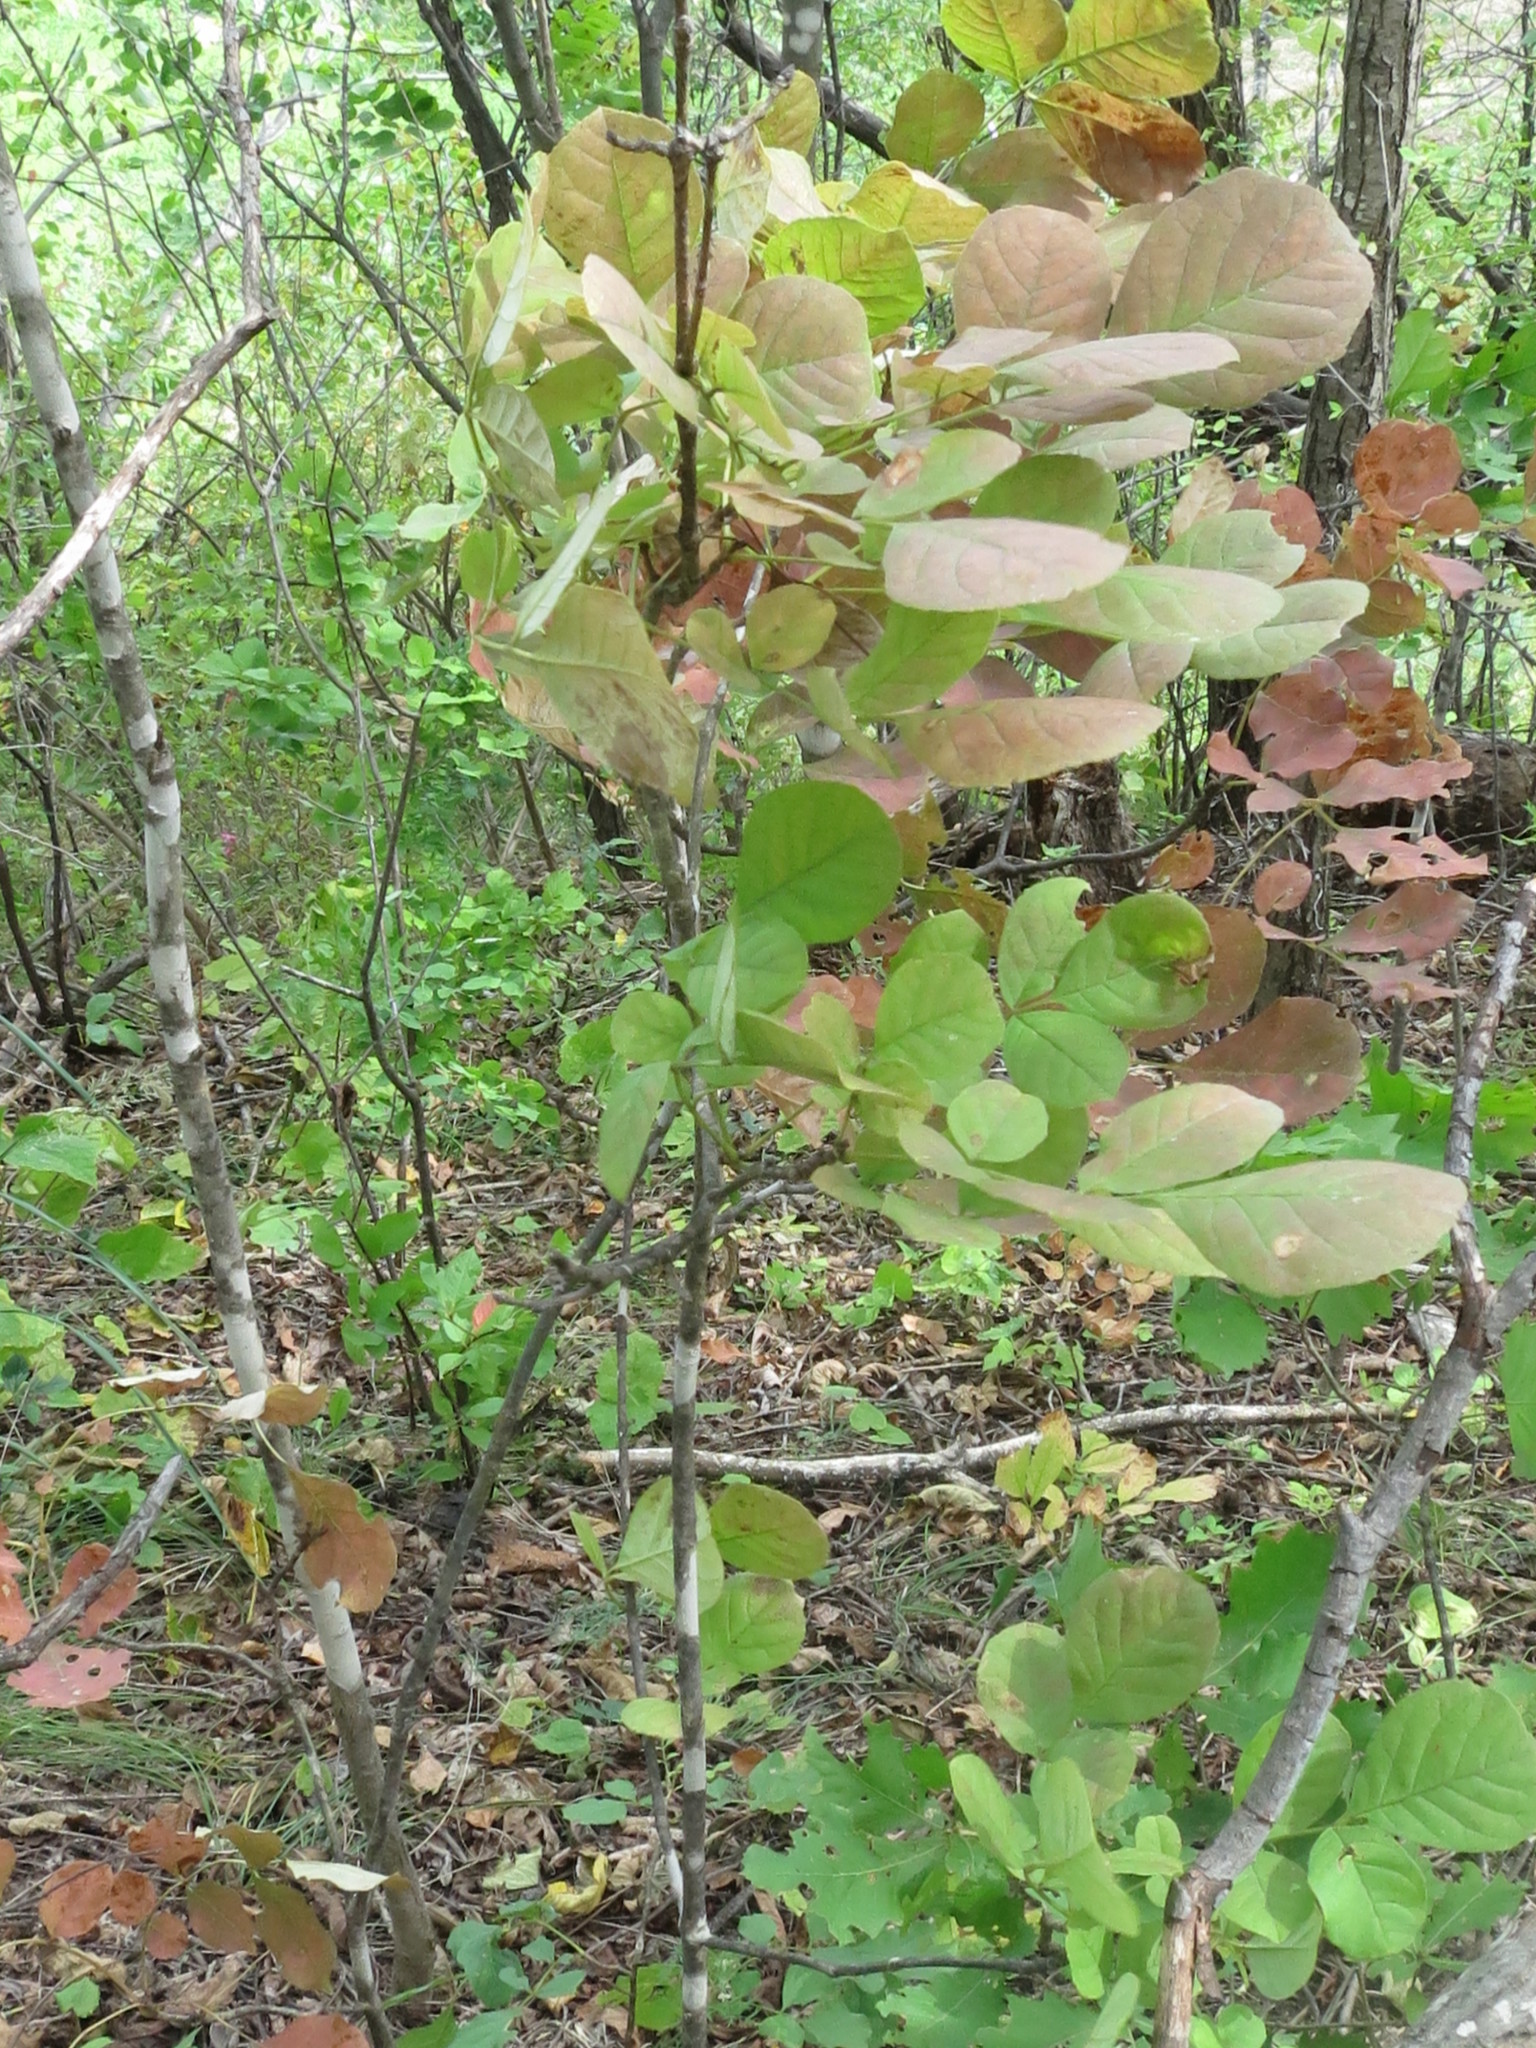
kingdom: Plantae
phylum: Tracheophyta
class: Magnoliopsida
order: Lamiales
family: Oleaceae
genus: Fraxinus
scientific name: Fraxinus chinensis
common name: Chinese ash
